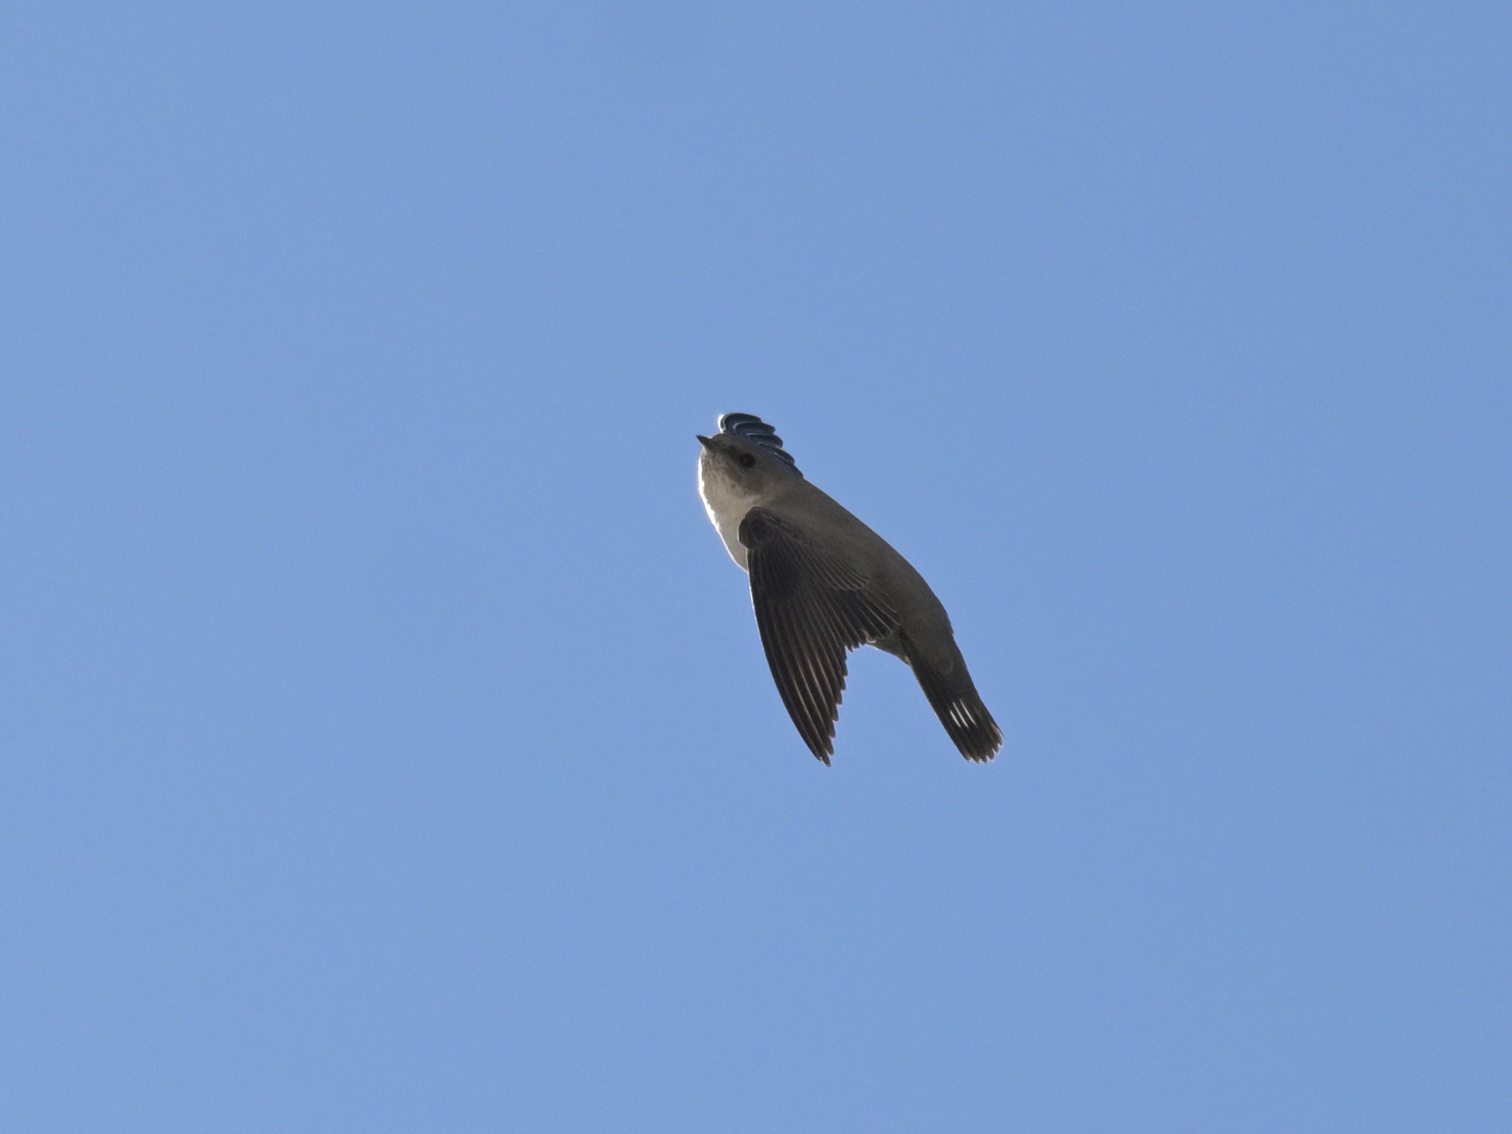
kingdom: Animalia
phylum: Chordata
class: Aves
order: Passeriformes
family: Hirundinidae
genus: Ptyonoprogne
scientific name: Ptyonoprogne rupestris
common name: Eurasian crag martin
